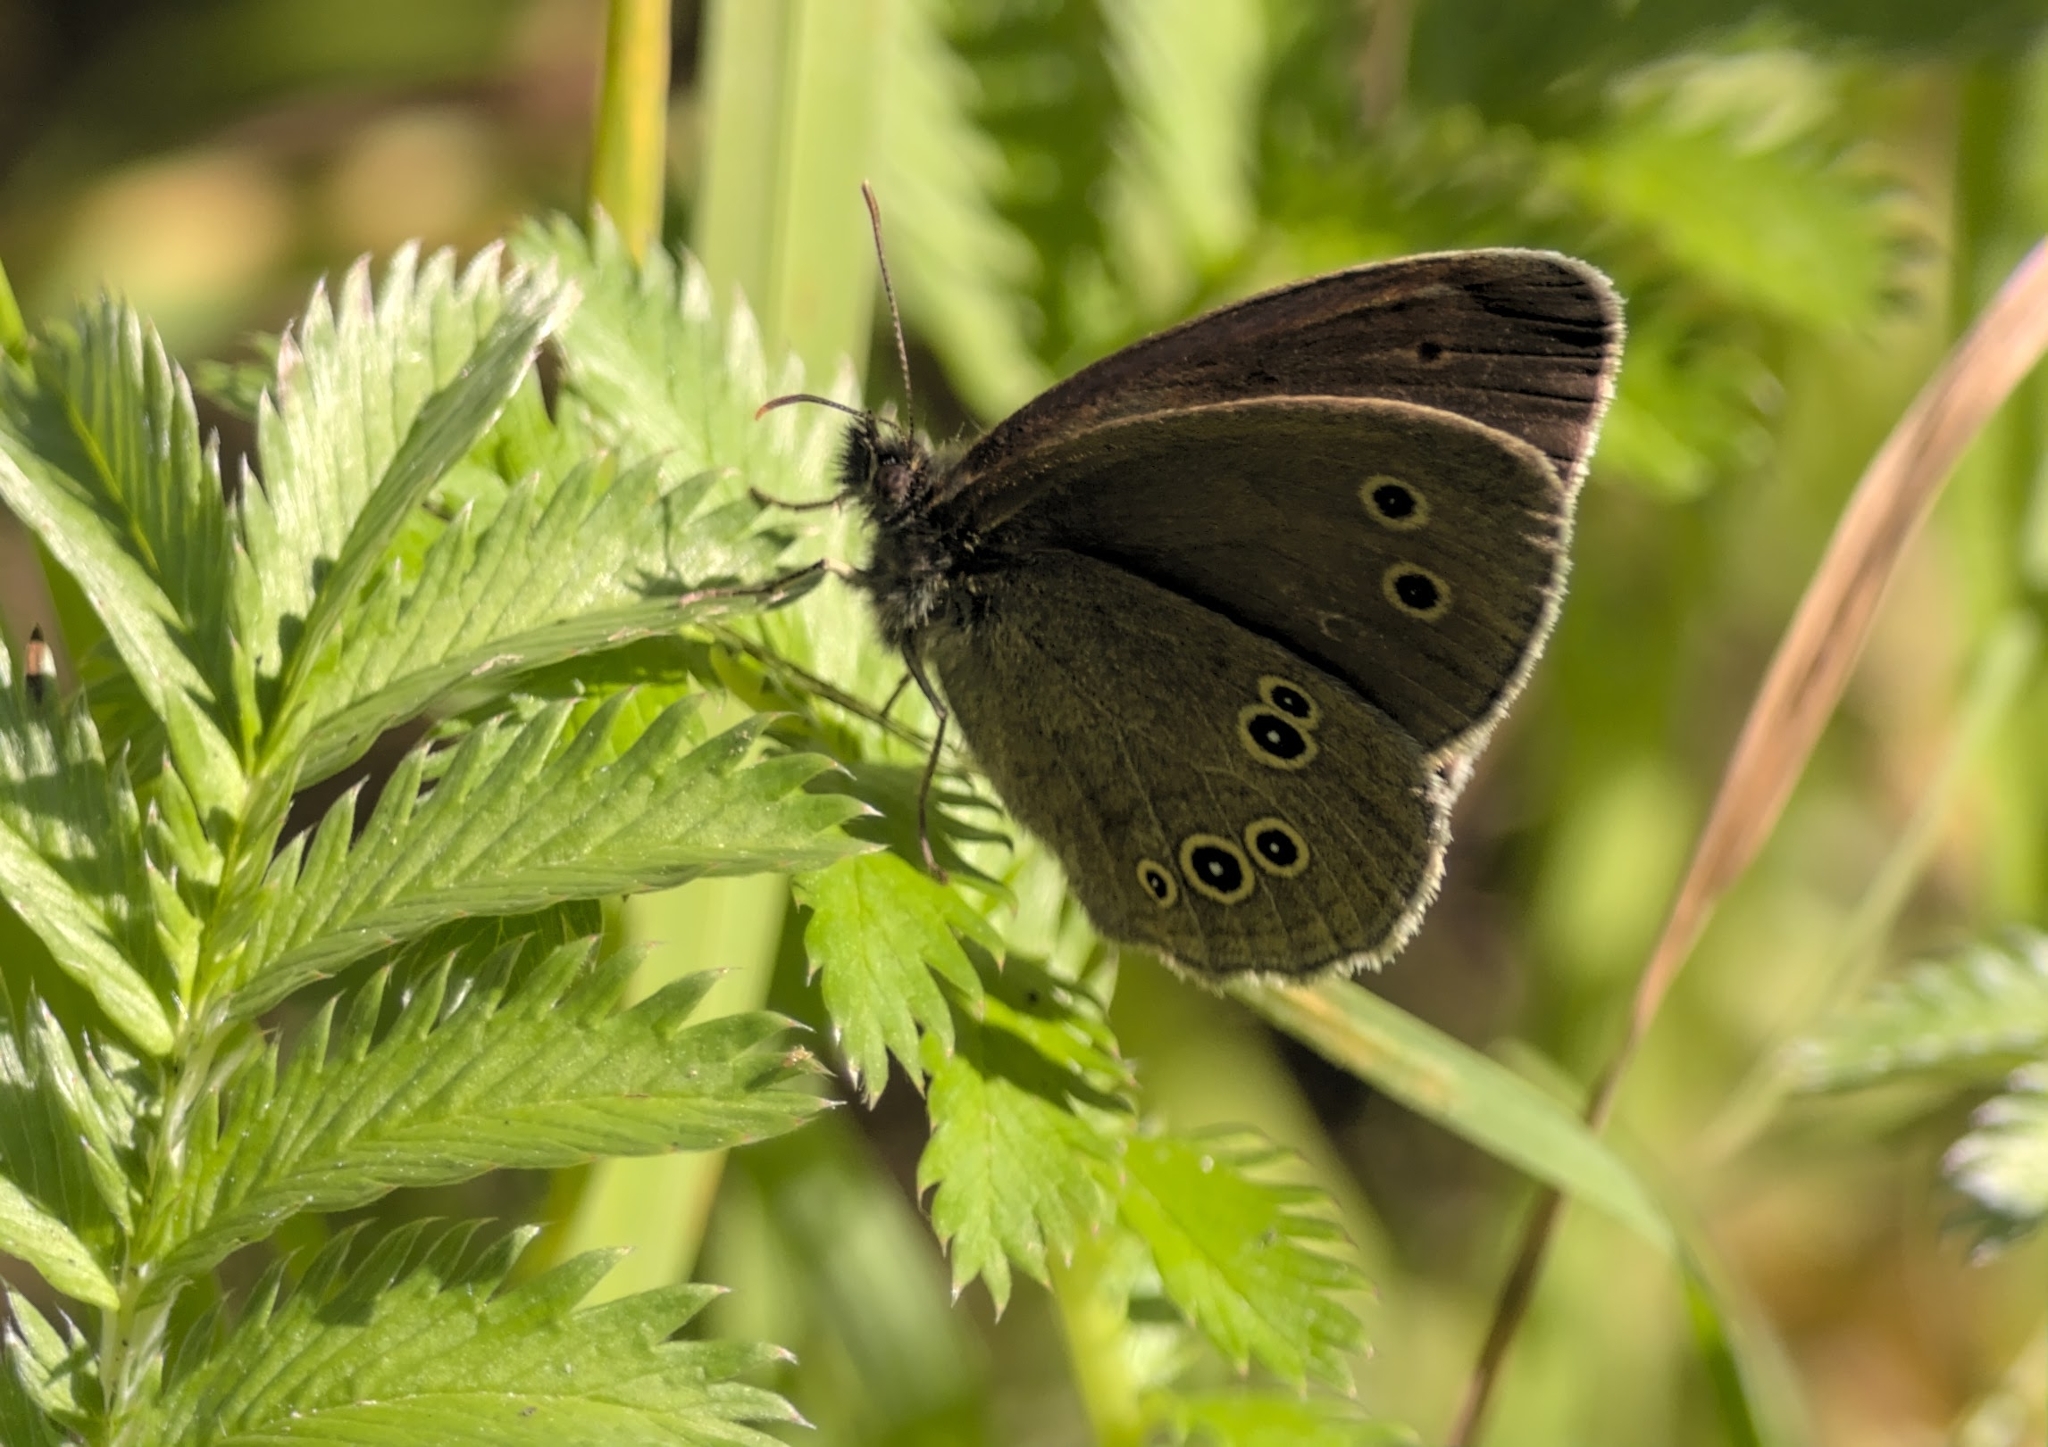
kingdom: Animalia
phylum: Arthropoda
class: Insecta
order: Lepidoptera
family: Nymphalidae
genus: Aphantopus
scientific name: Aphantopus hyperantus
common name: Ringlet
